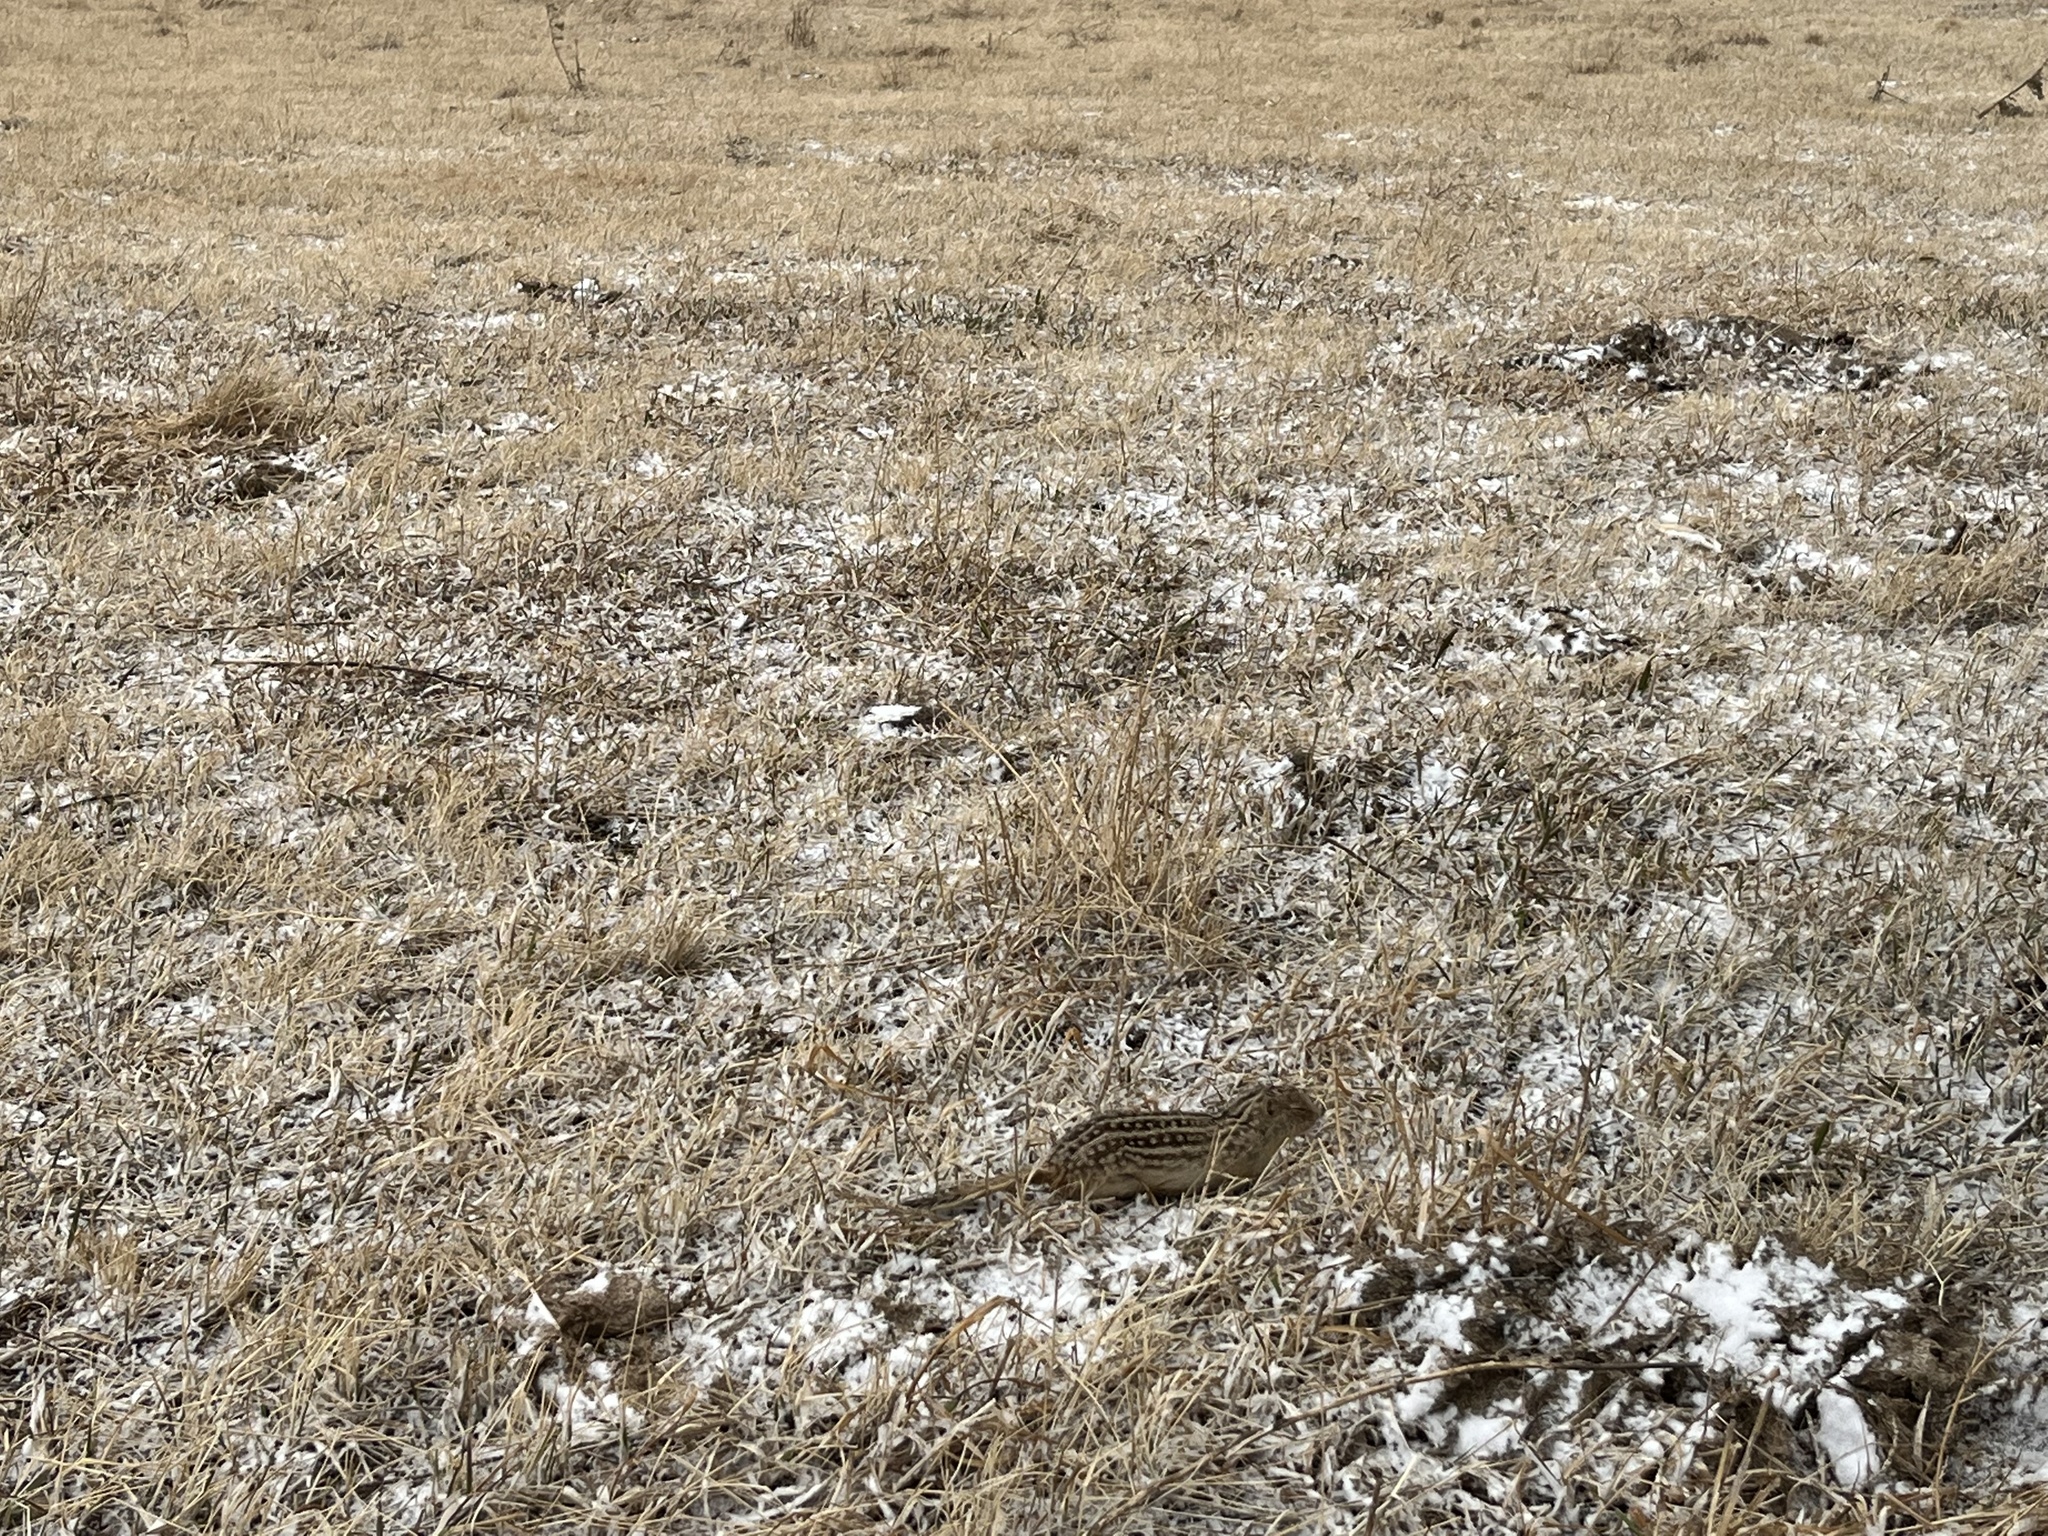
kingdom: Animalia
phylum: Chordata
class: Mammalia
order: Rodentia
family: Sciuridae
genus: Ictidomys
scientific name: Ictidomys tridecemlineatus
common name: Thirteen-lined ground squirrel
